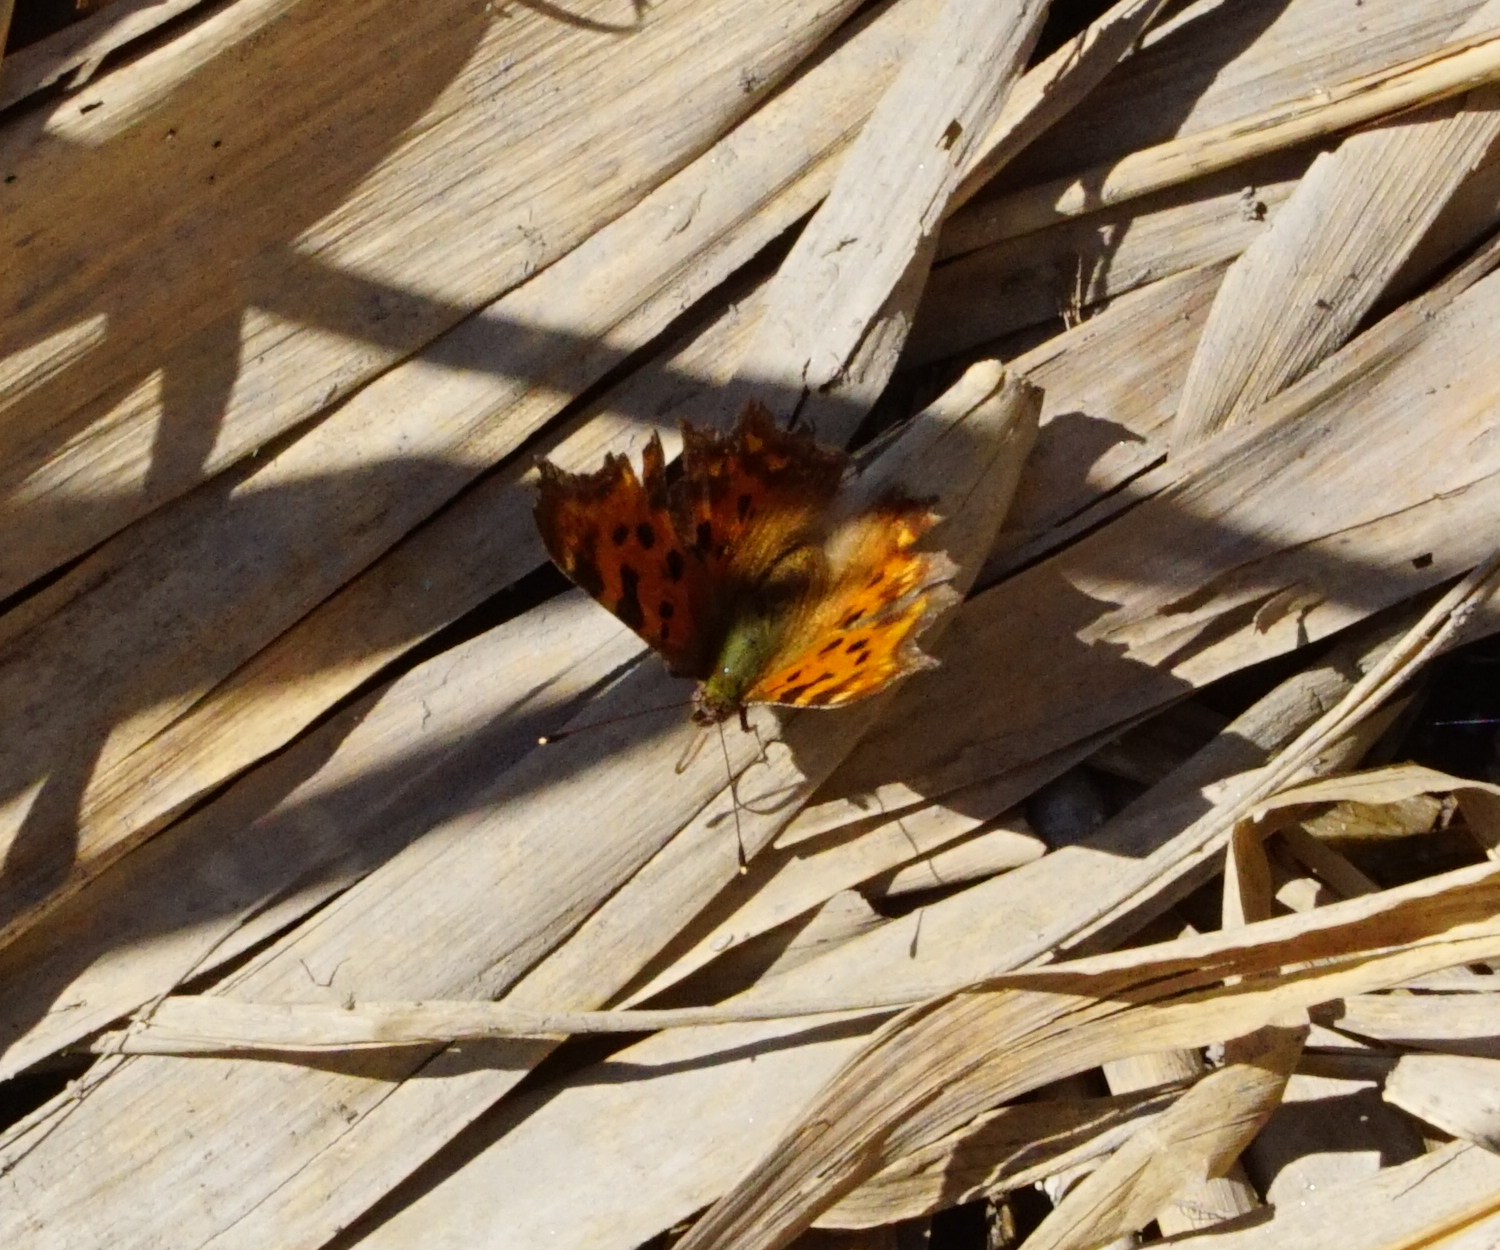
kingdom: Animalia
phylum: Arthropoda
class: Insecta
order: Lepidoptera
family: Nymphalidae
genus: Polygonia
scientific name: Polygonia c-album
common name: Comma
